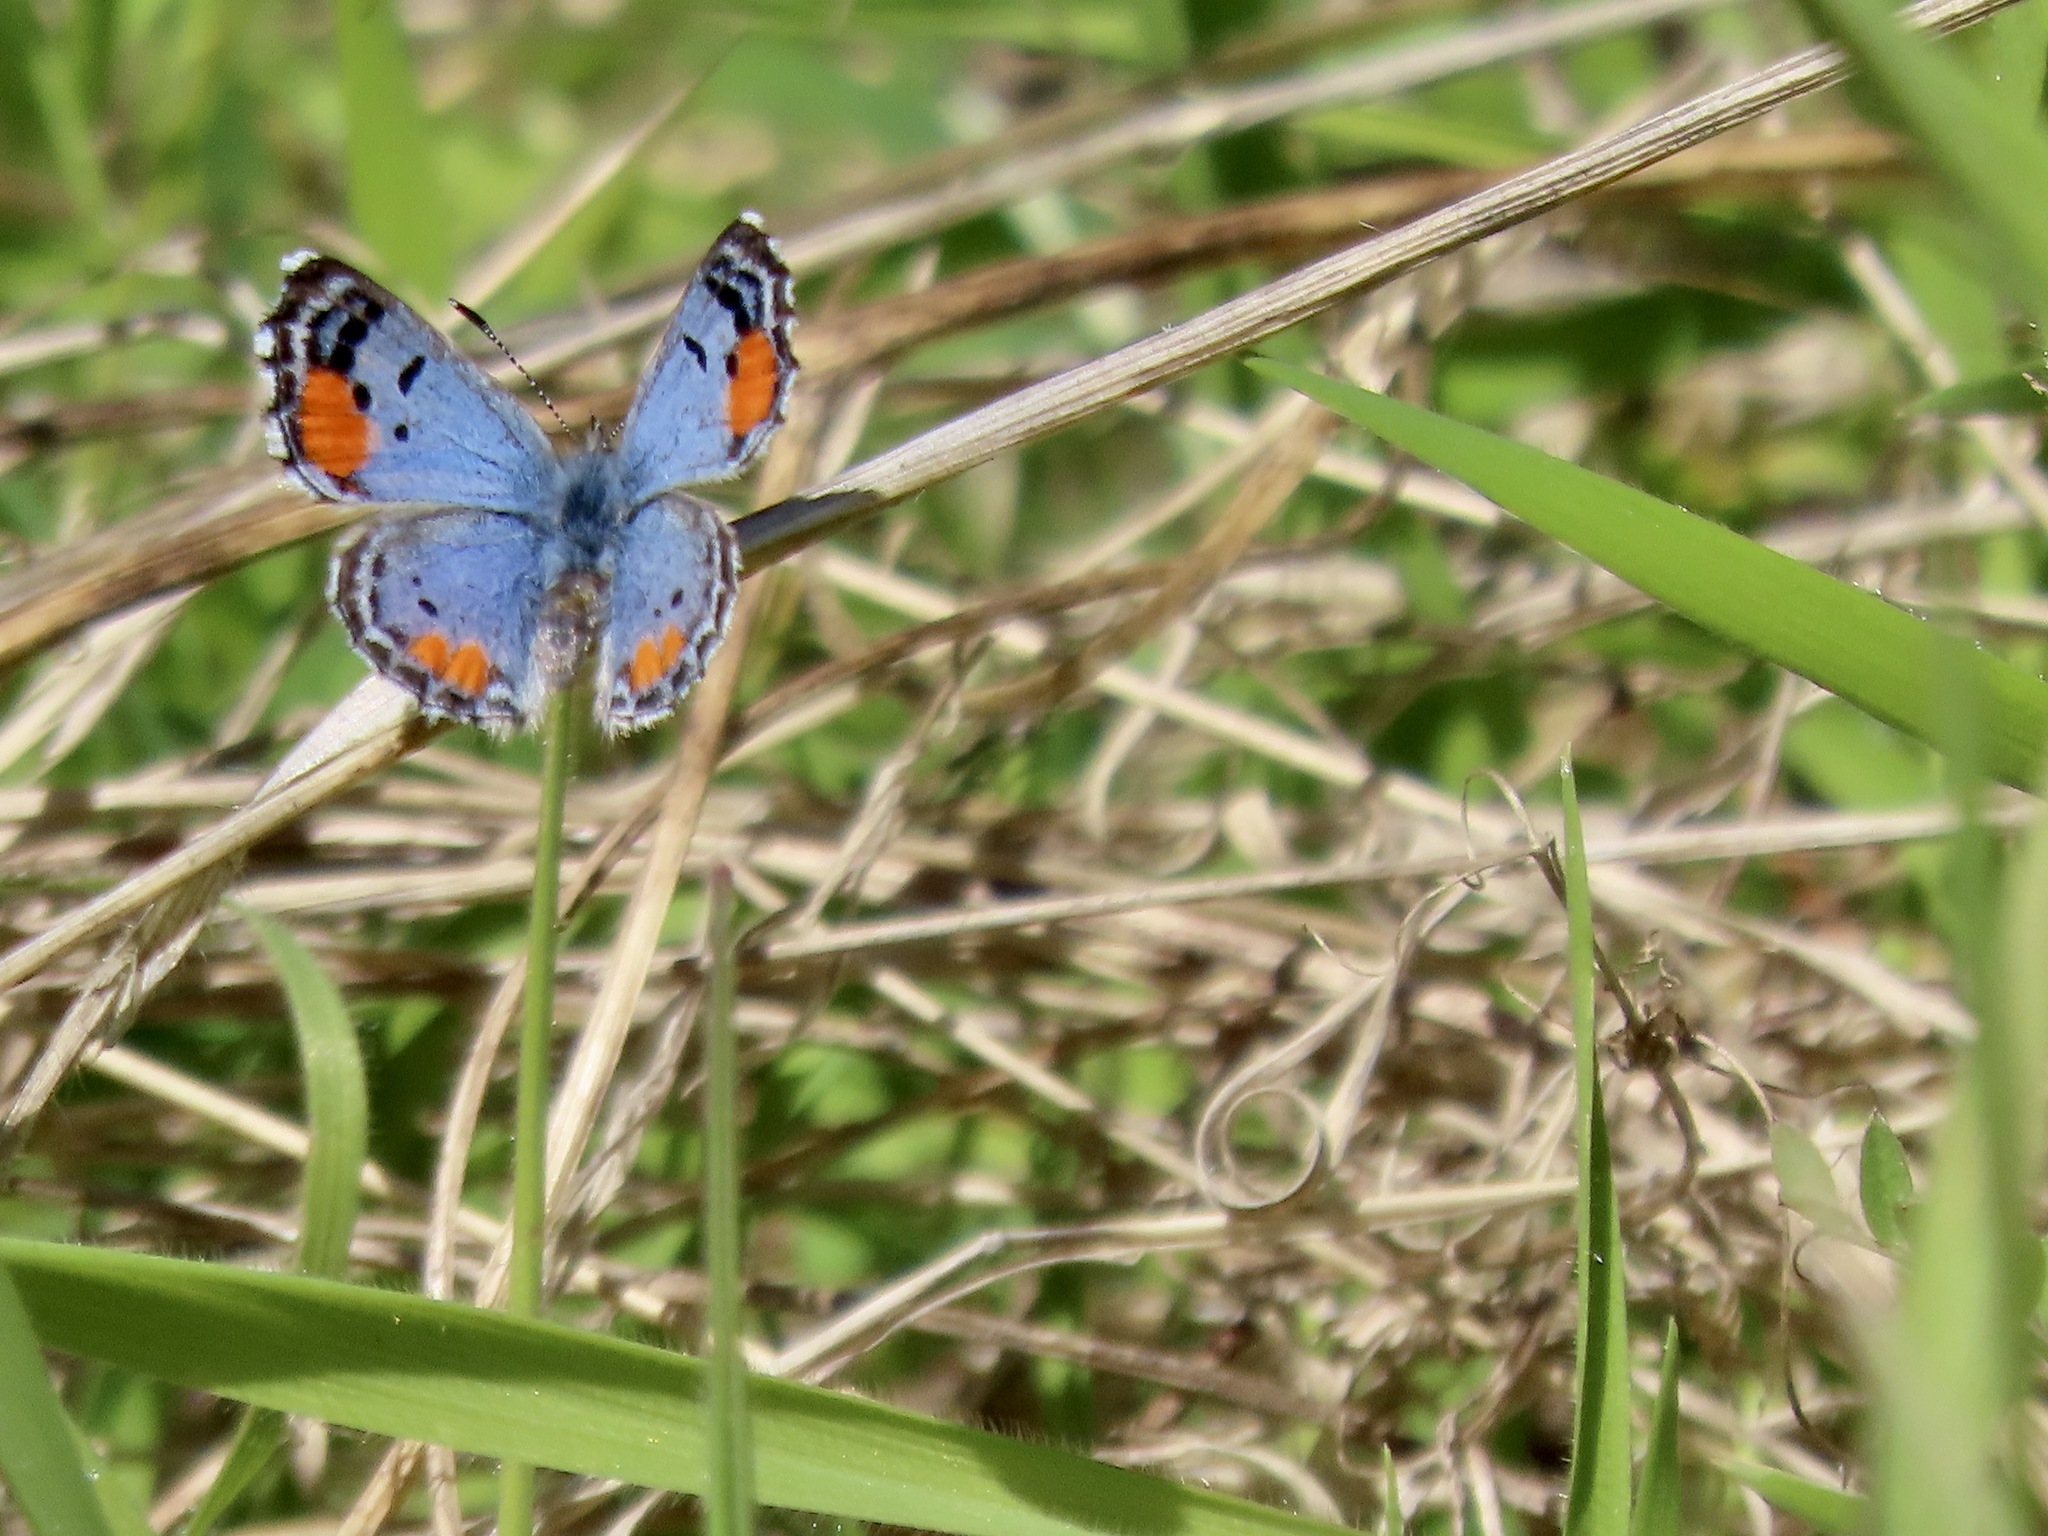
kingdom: Animalia
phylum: Arthropoda
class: Insecta
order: Lepidoptera
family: Lycaenidae
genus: Philotes
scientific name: Philotes sonorensis
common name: Sonoran blue
